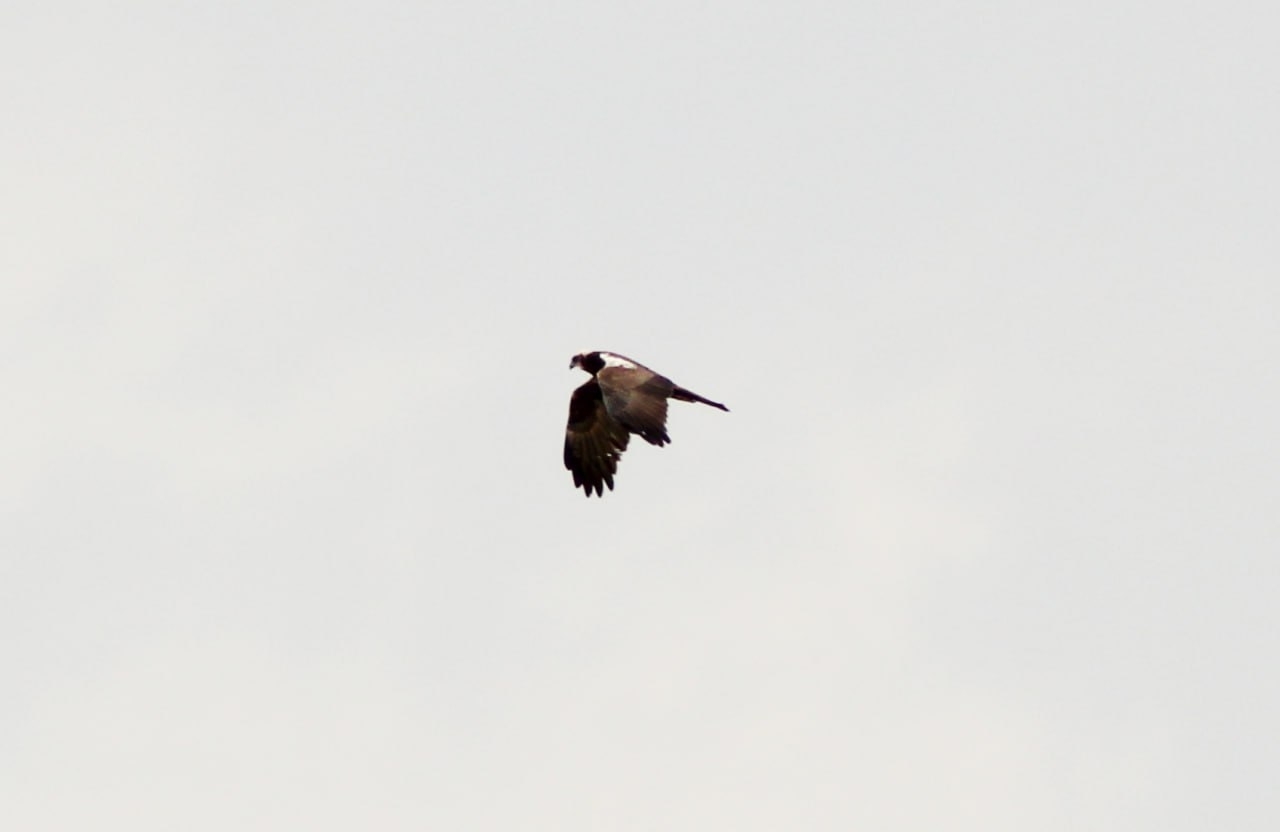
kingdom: Animalia
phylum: Chordata
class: Aves
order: Accipitriformes
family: Accipitridae
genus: Circus
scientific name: Circus aeruginosus
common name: Western marsh harrier
